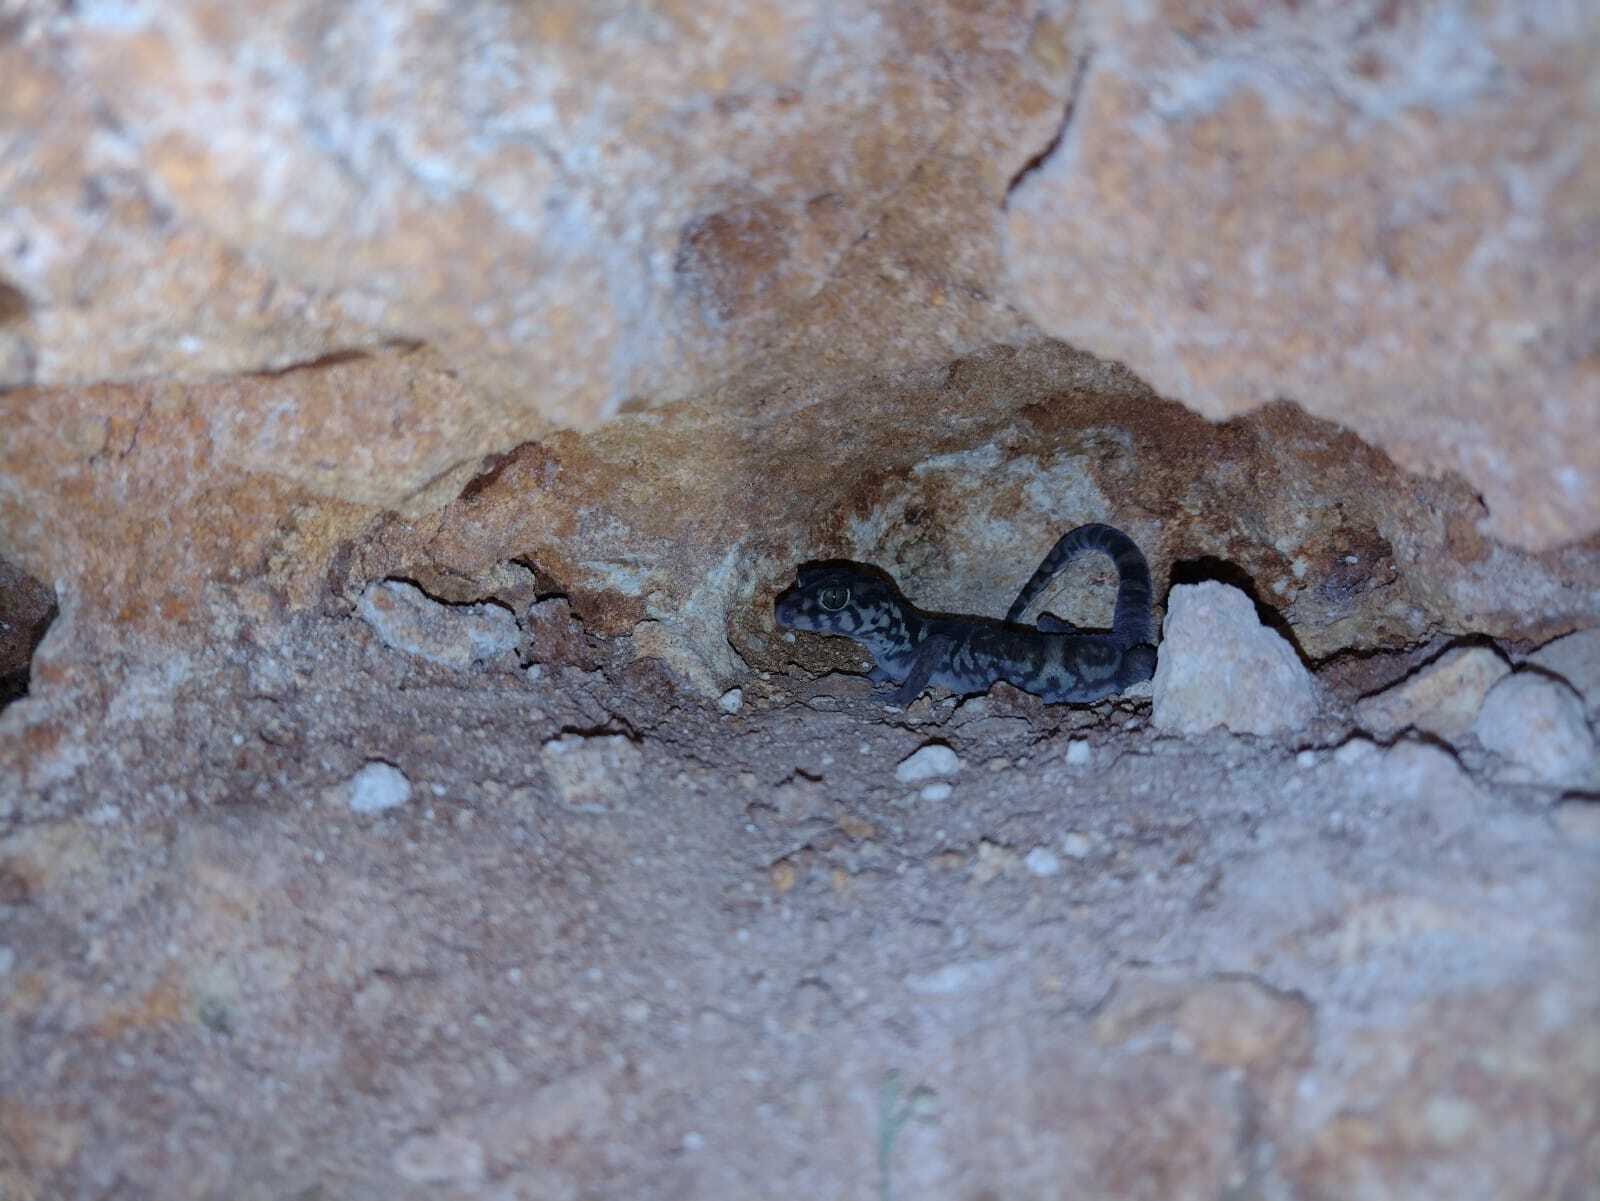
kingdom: Animalia
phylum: Chordata
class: Squamata
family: Eublepharidae
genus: Coleonyx
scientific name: Coleonyx elegans
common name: Yucatan banded gecko
